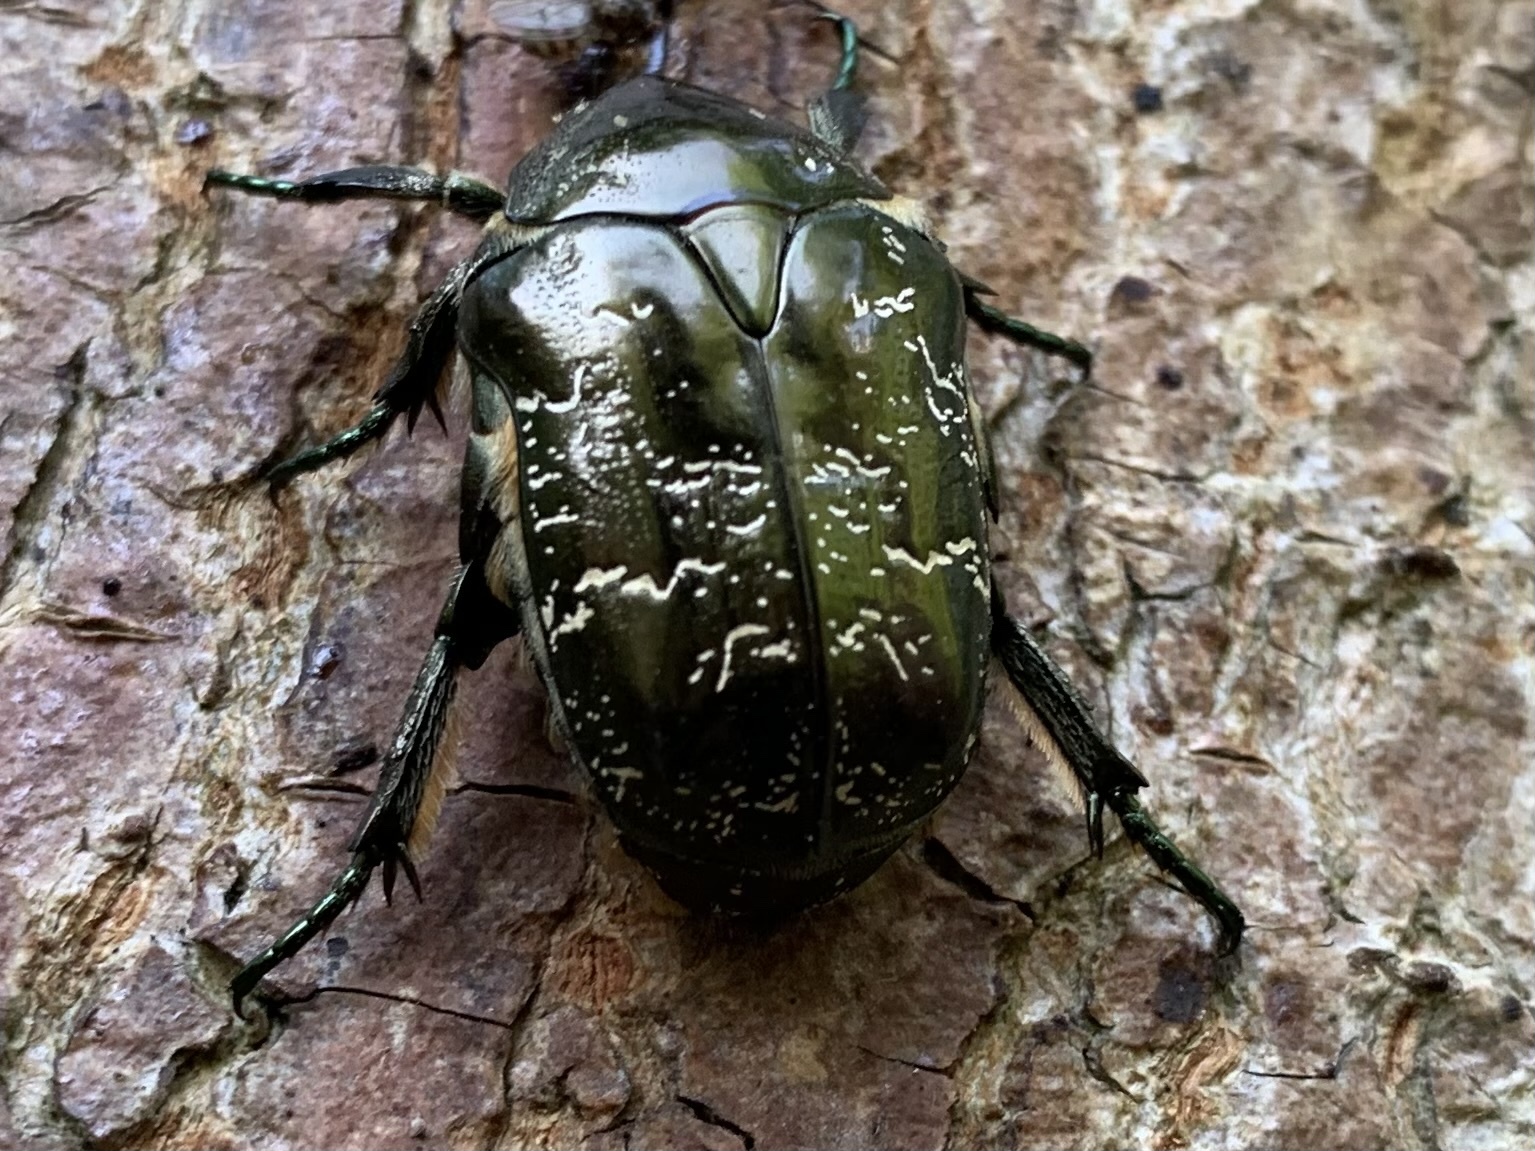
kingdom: Animalia
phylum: Arthropoda
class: Insecta
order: Coleoptera
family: Scarabaeidae
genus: Protaetia
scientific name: Protaetia marmorata
